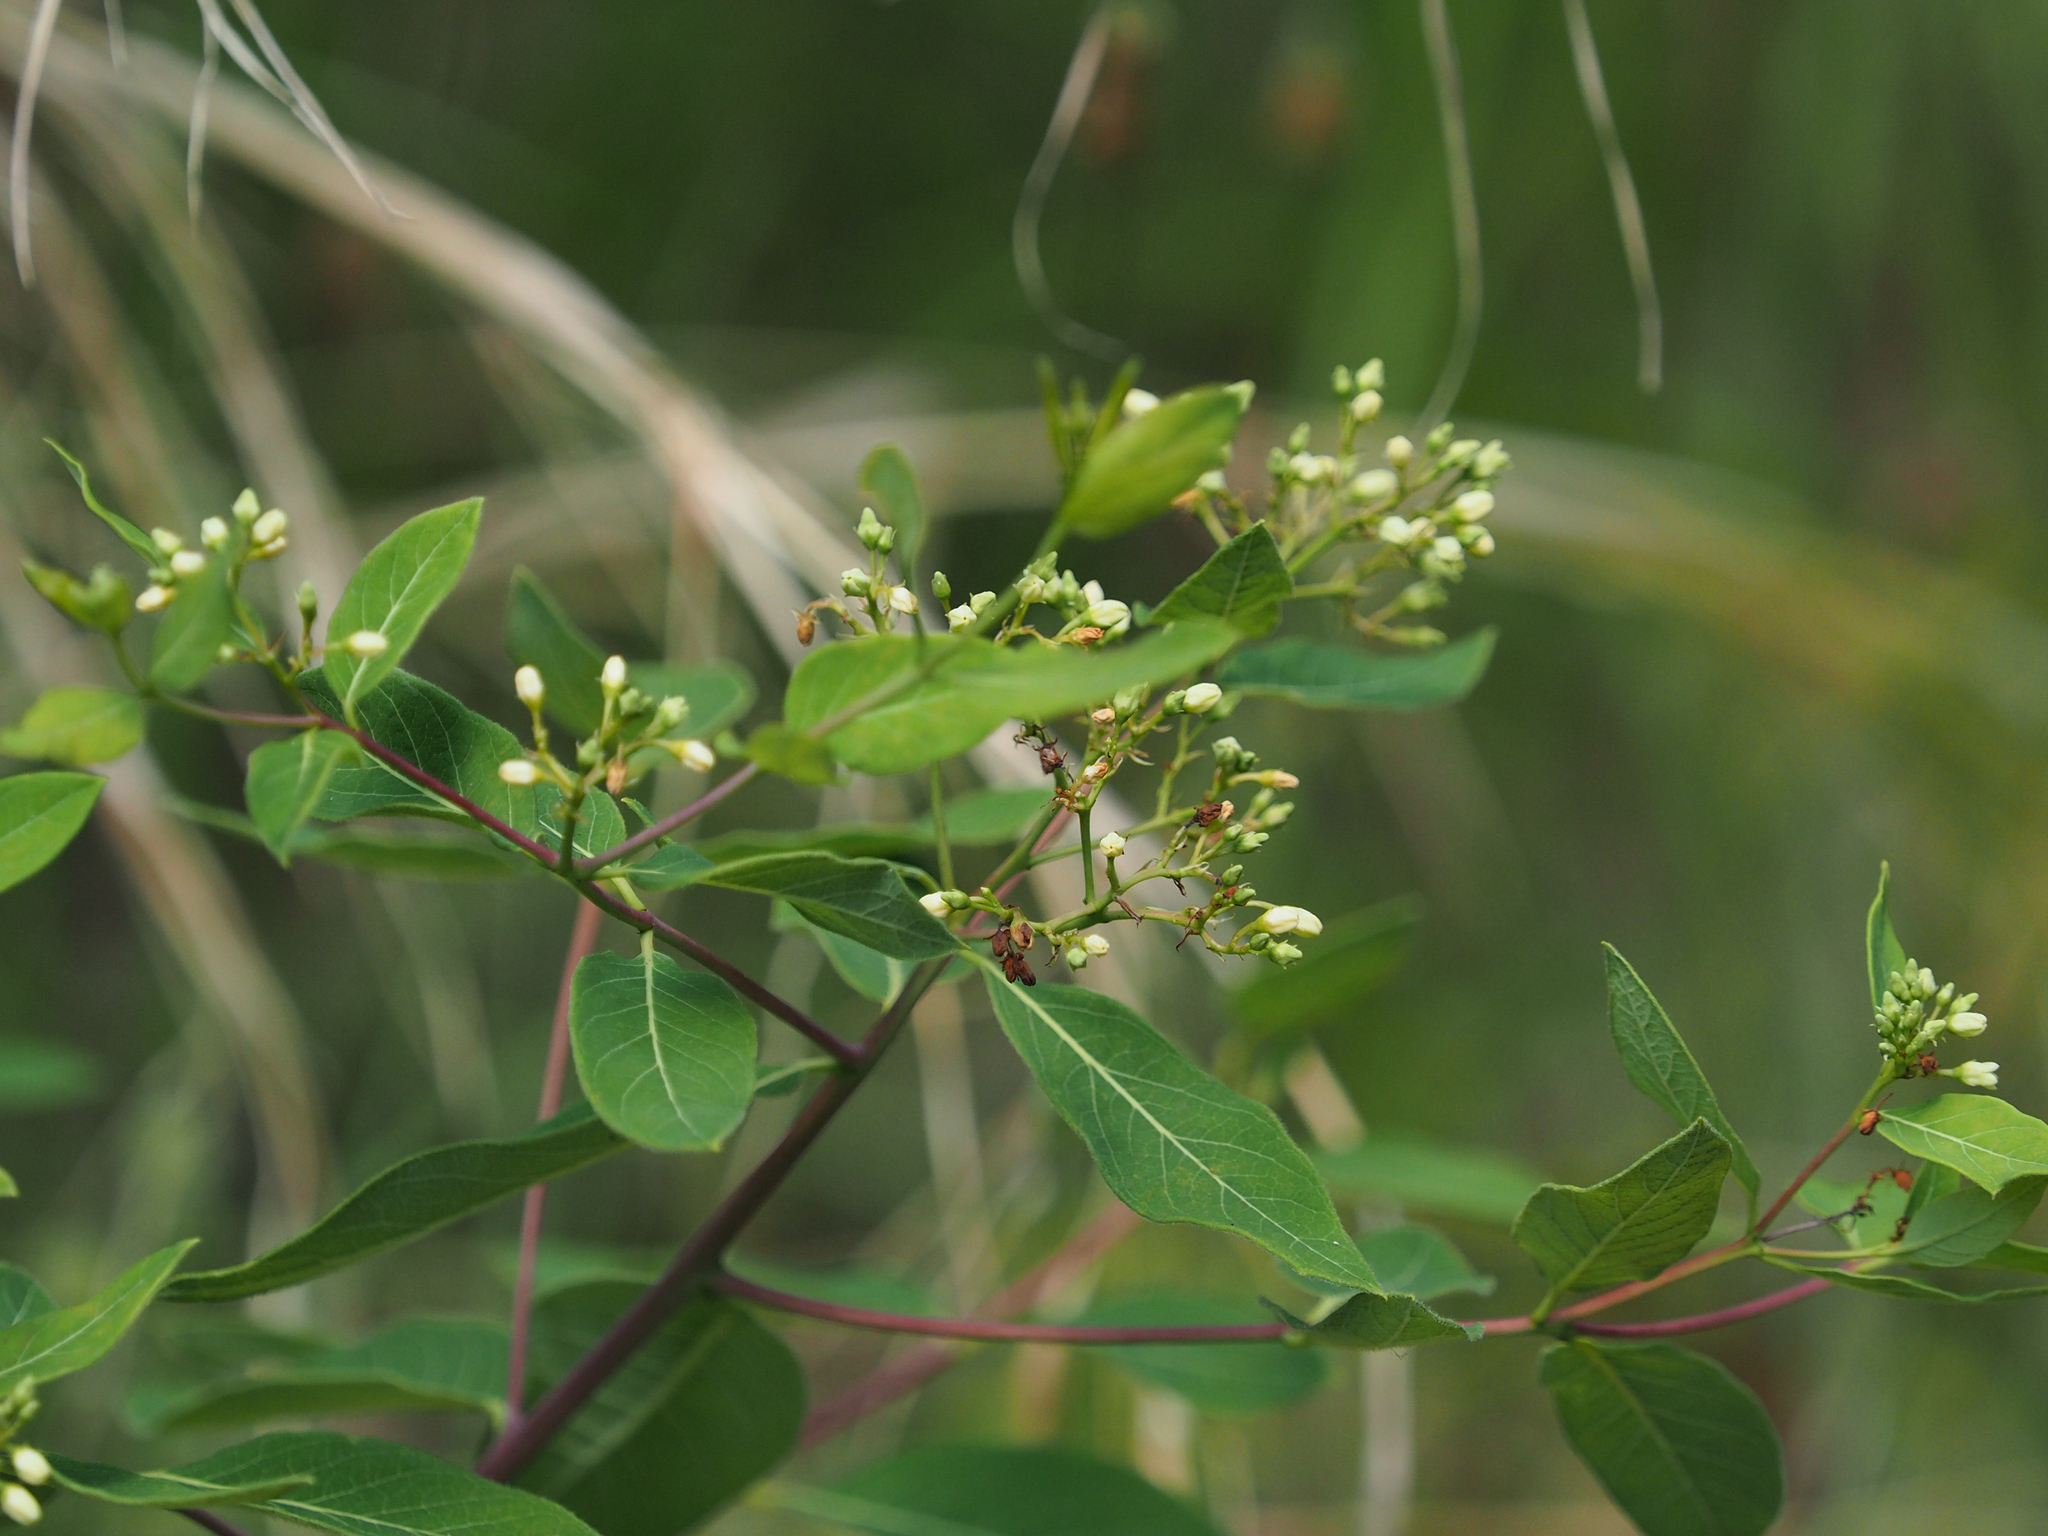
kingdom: Plantae
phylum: Tracheophyta
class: Magnoliopsida
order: Gentianales
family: Apocynaceae
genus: Apocynum
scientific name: Apocynum cannabinum
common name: Hemp dogbane
